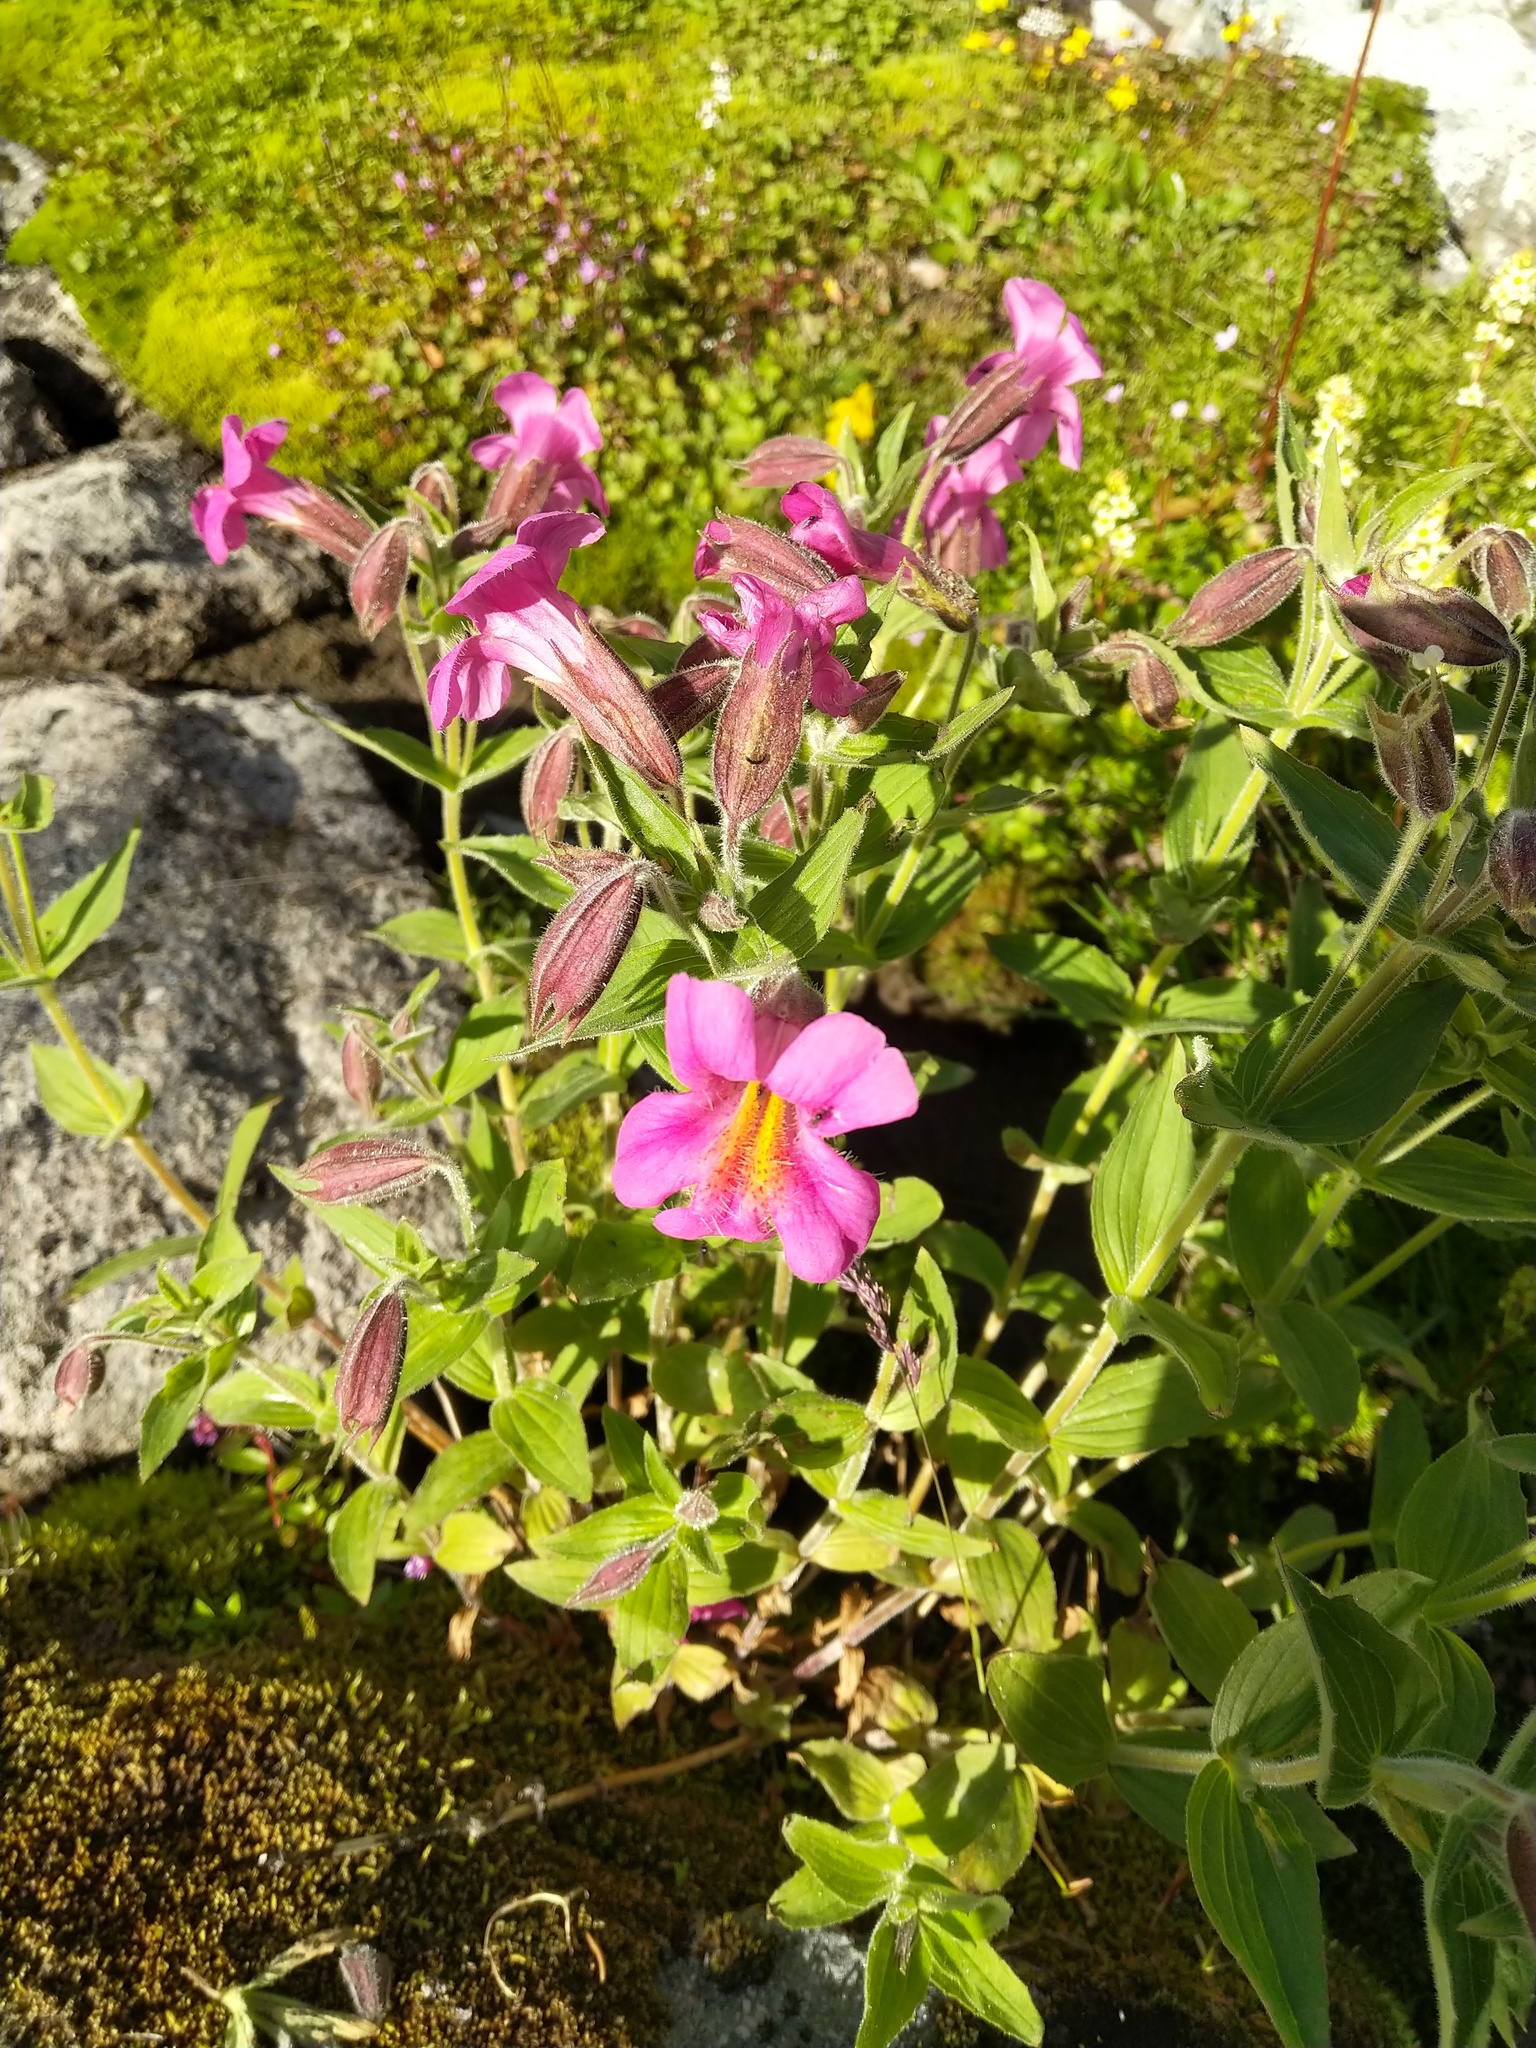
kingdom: Plantae
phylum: Tracheophyta
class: Magnoliopsida
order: Lamiales
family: Phrymaceae
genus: Erythranthe
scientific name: Erythranthe lewisii
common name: Lewis's monkey-flower
